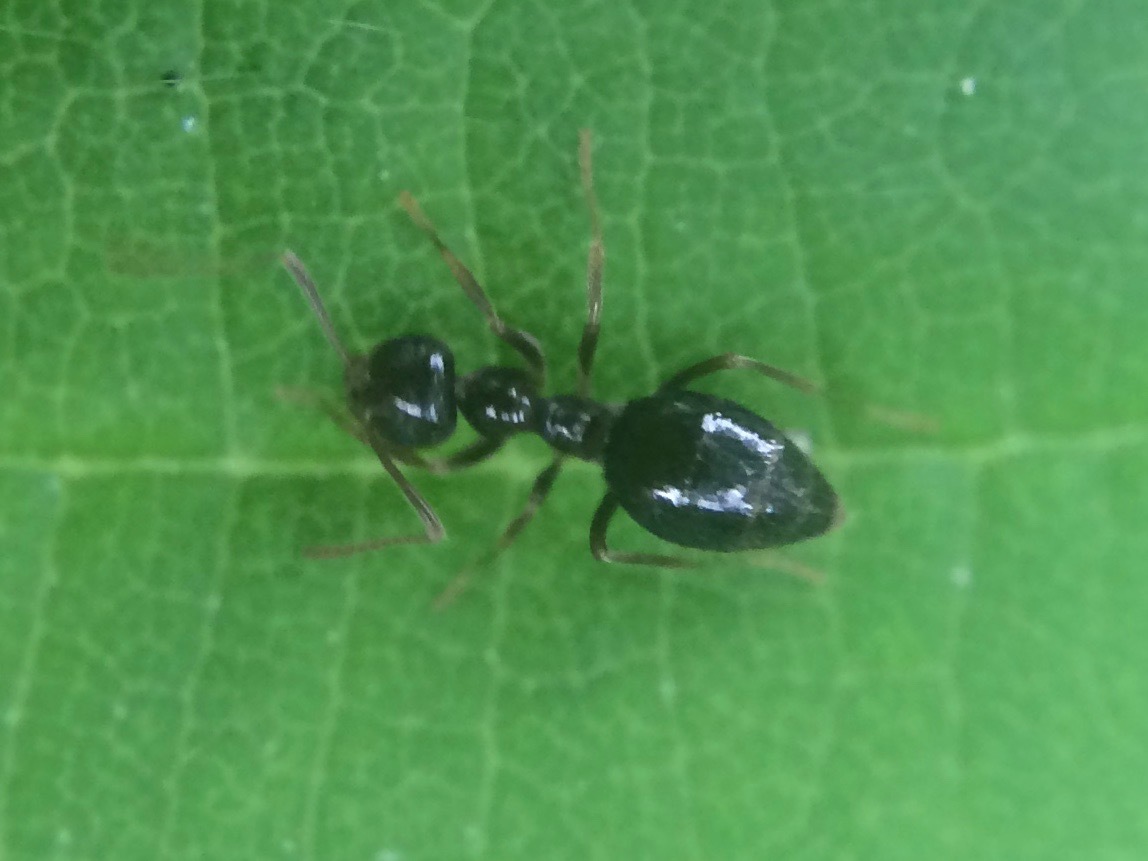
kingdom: Animalia
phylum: Arthropoda
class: Insecta
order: Hymenoptera
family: Formicidae
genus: Prenolepis
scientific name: Prenolepis imparis
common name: Small honey ant
